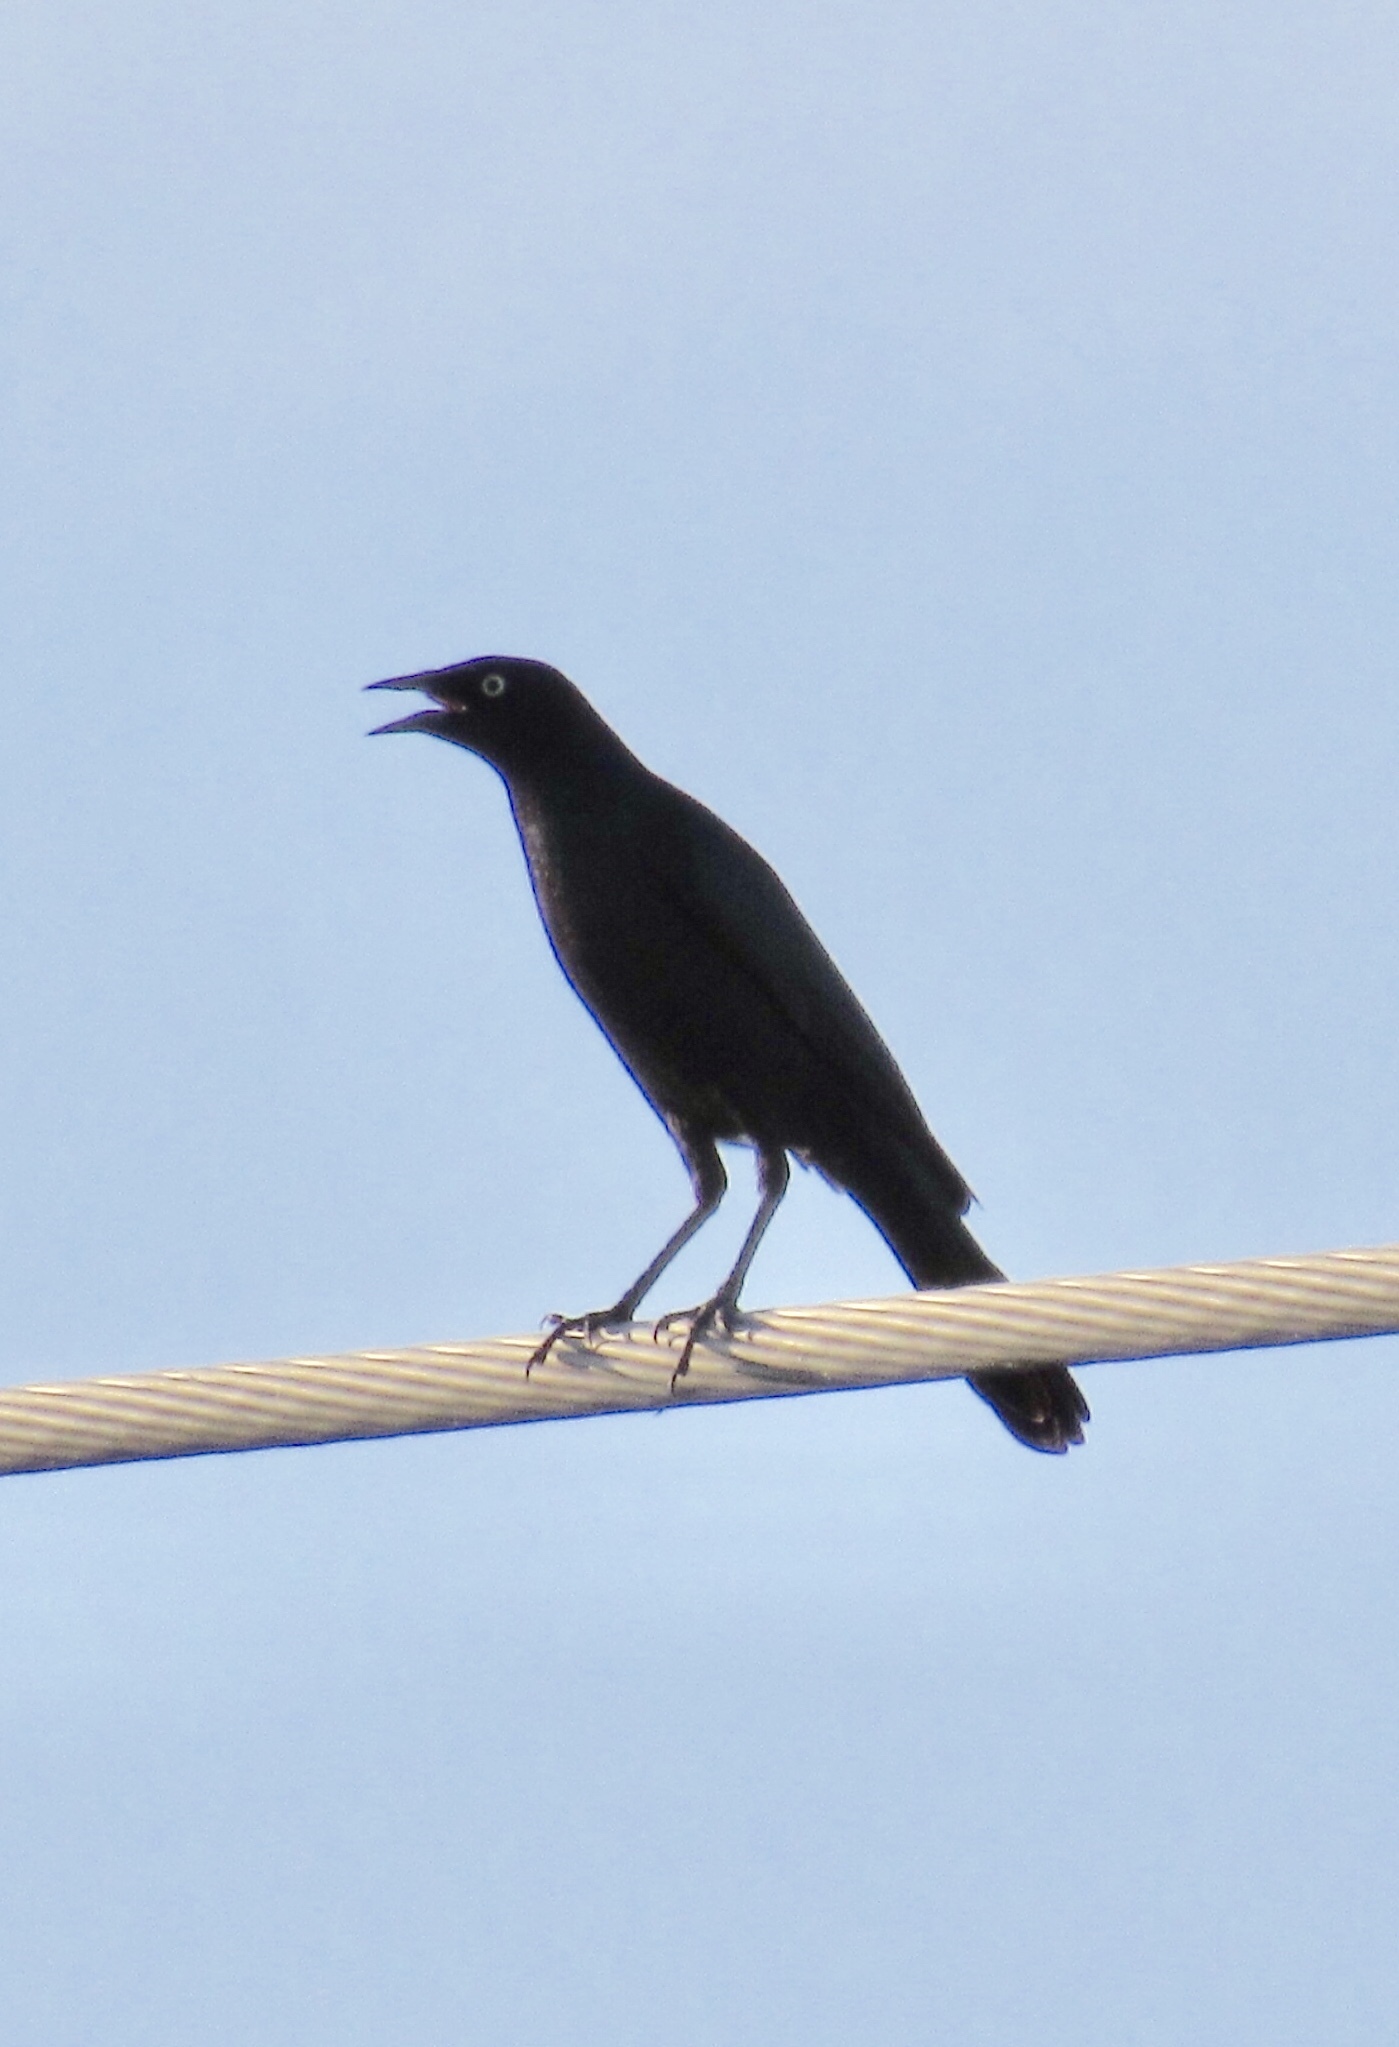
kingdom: Animalia
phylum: Chordata
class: Aves
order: Passeriformes
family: Icteridae
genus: Euphagus
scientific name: Euphagus cyanocephalus
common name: Brewer's blackbird
